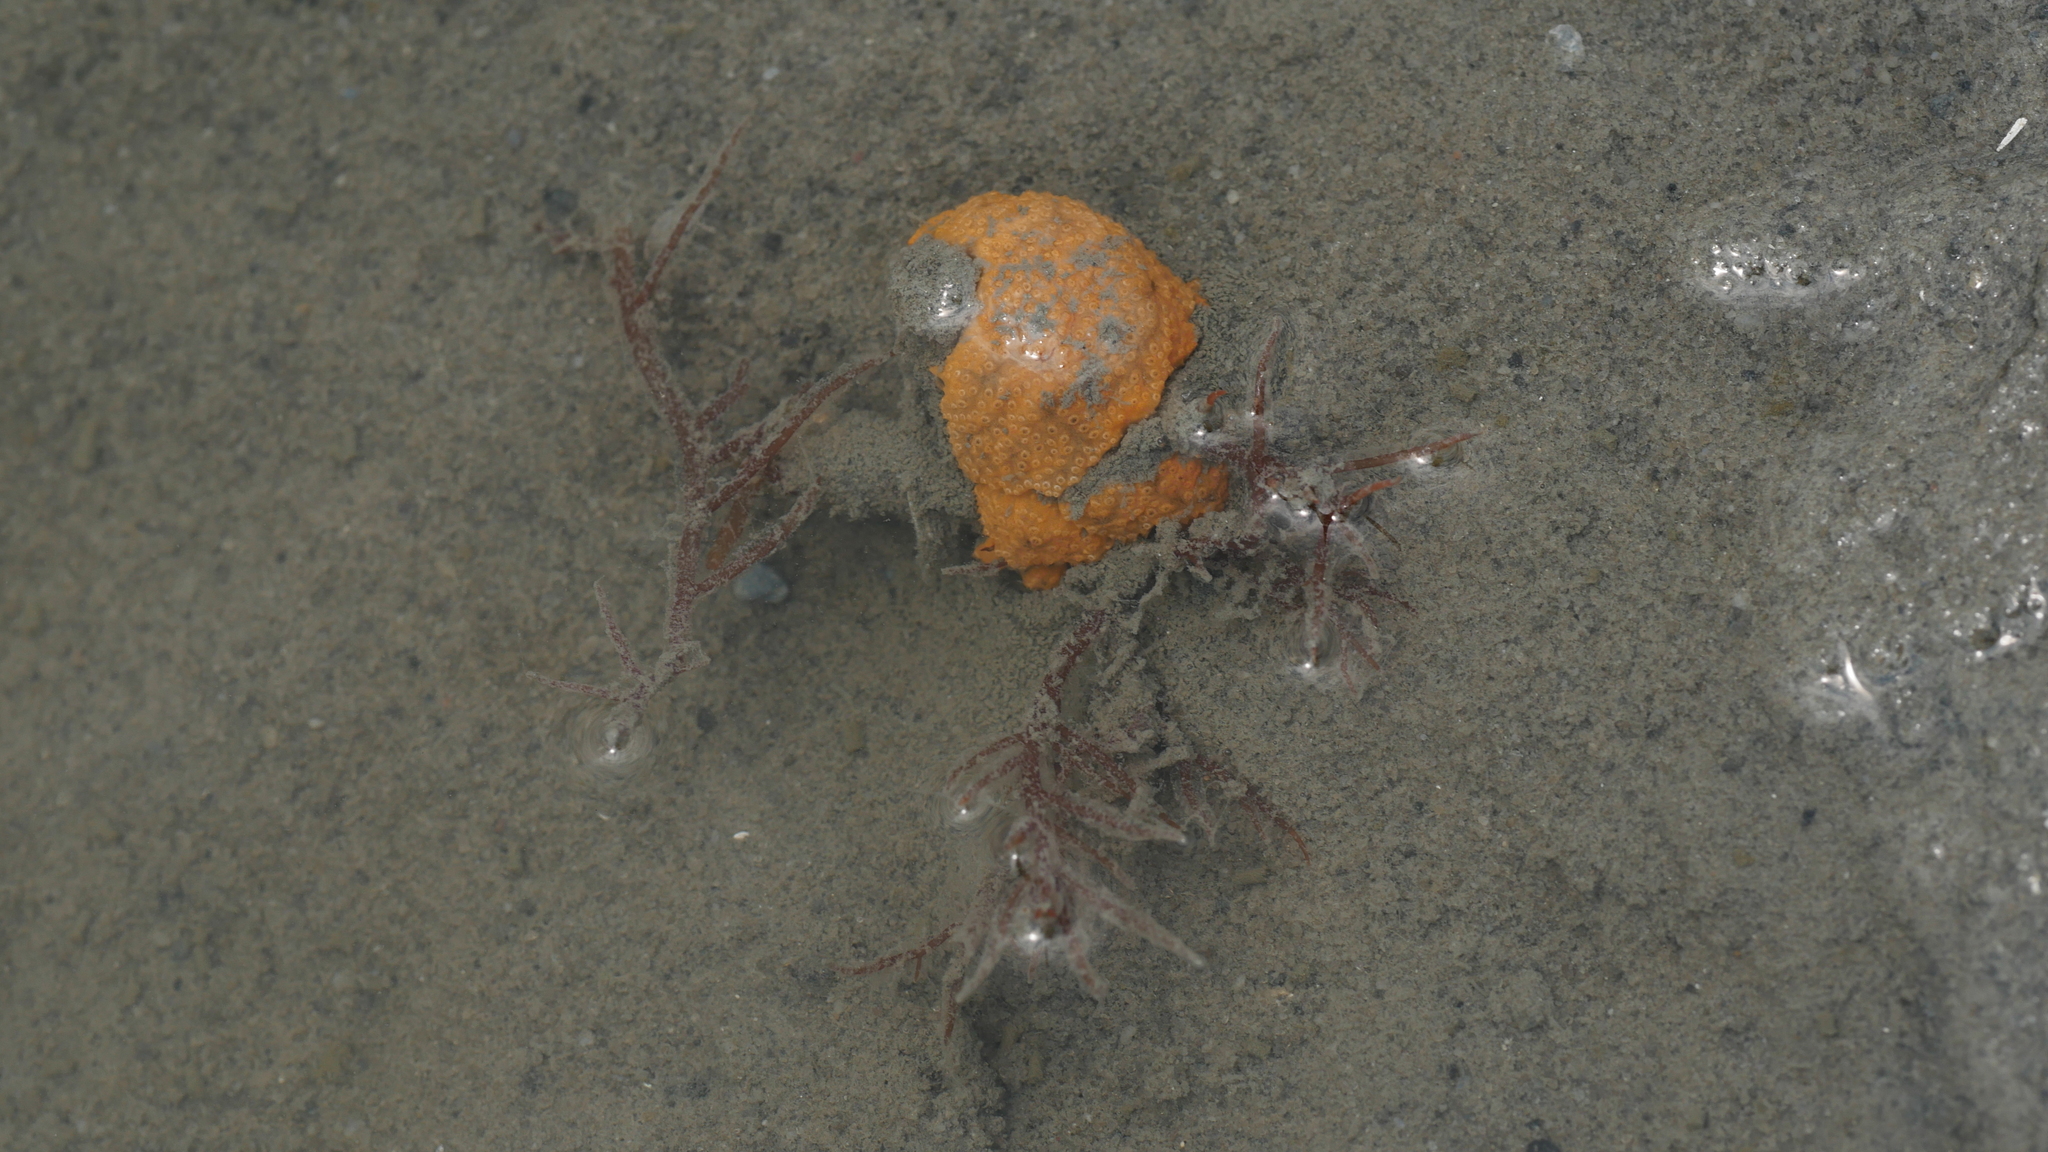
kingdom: Animalia
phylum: Chordata
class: Ascidiacea
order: Aplousobranchia
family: Polyclinidae
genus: Aplidium
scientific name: Aplidium stellatum
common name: Atlantic sea pork
